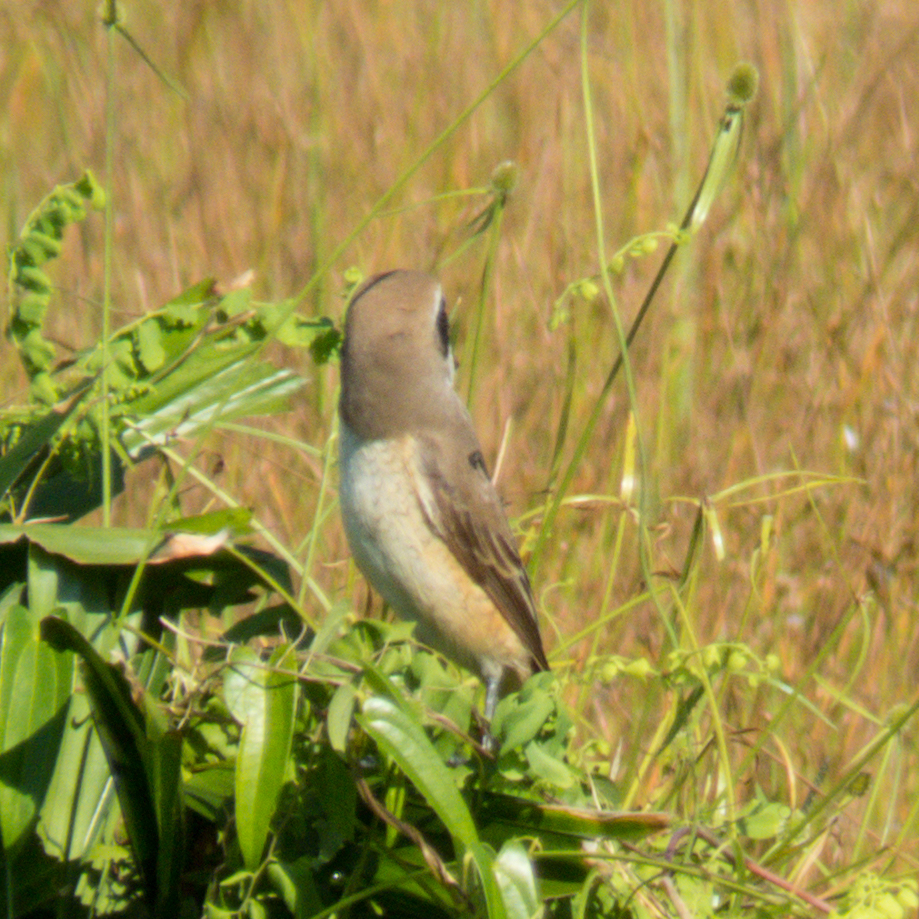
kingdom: Animalia
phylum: Chordata
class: Aves
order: Passeriformes
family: Laniidae
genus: Lanius
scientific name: Lanius cristatus
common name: Brown shrike
